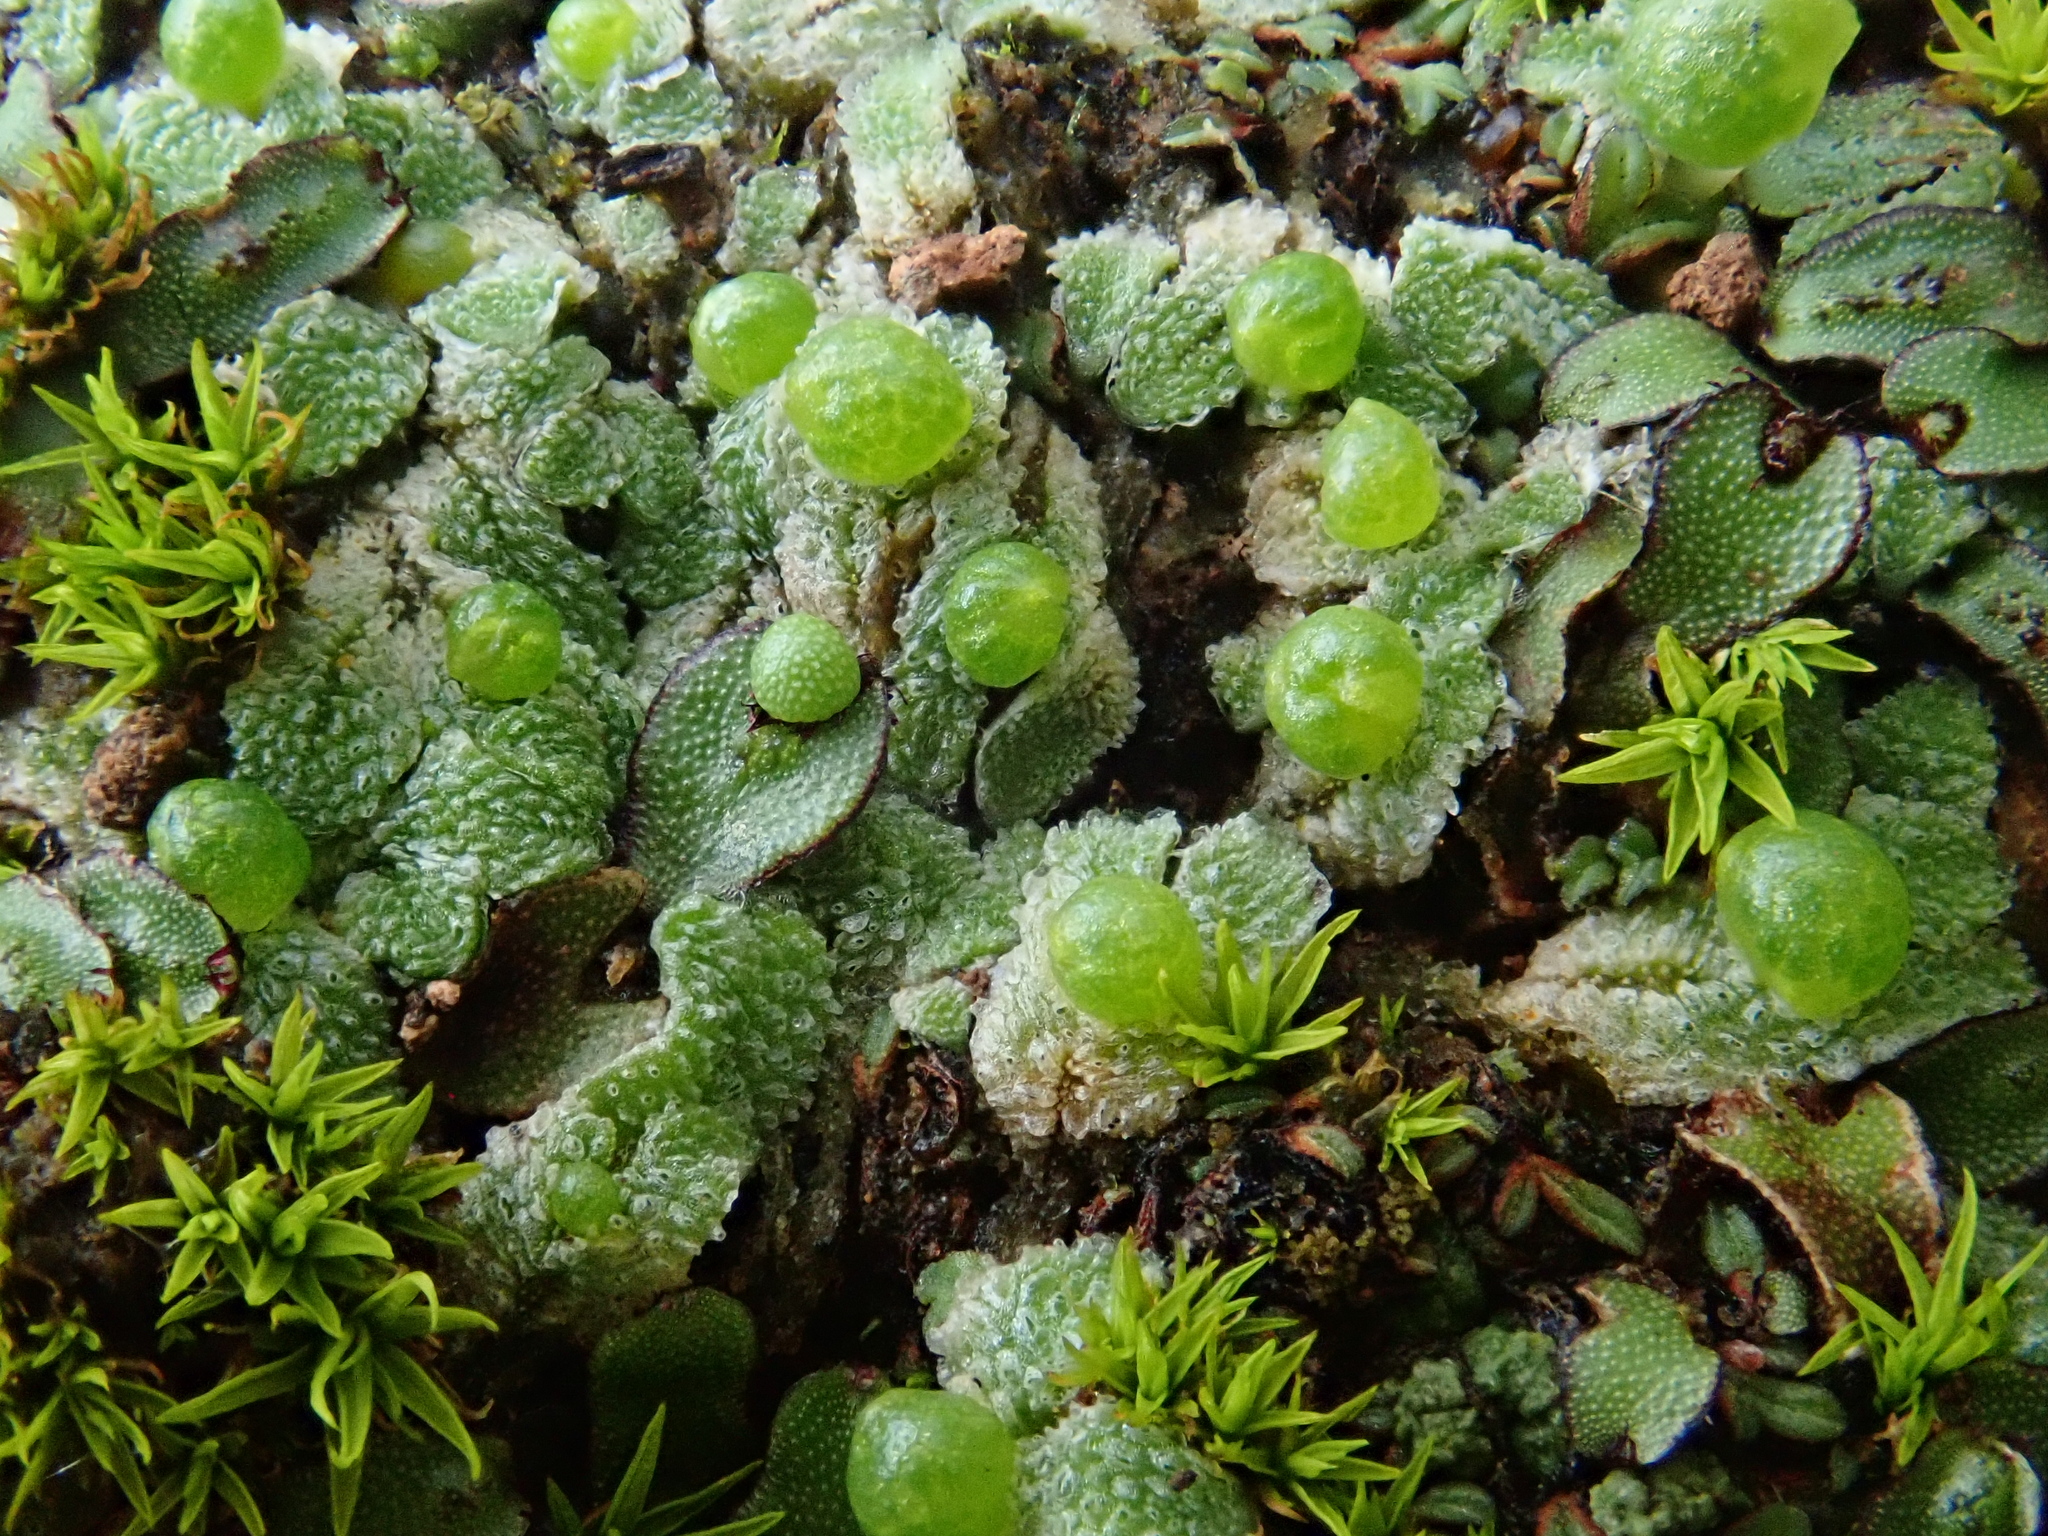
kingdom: Plantae
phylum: Marchantiophyta
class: Marchantiopsida
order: Marchantiales
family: Corsiniaceae
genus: Exormotheca
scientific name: Exormotheca pustulosa
